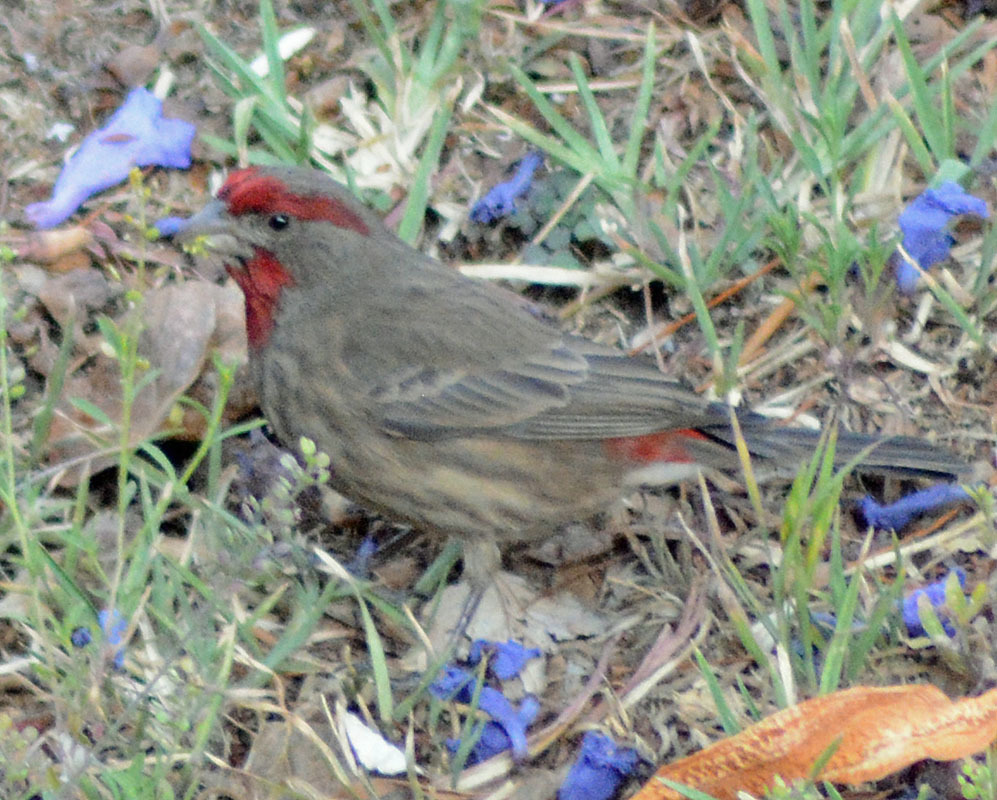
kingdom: Animalia
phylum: Chordata
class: Aves
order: Passeriformes
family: Fringillidae
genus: Haemorhous
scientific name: Haemorhous mexicanus
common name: House finch
